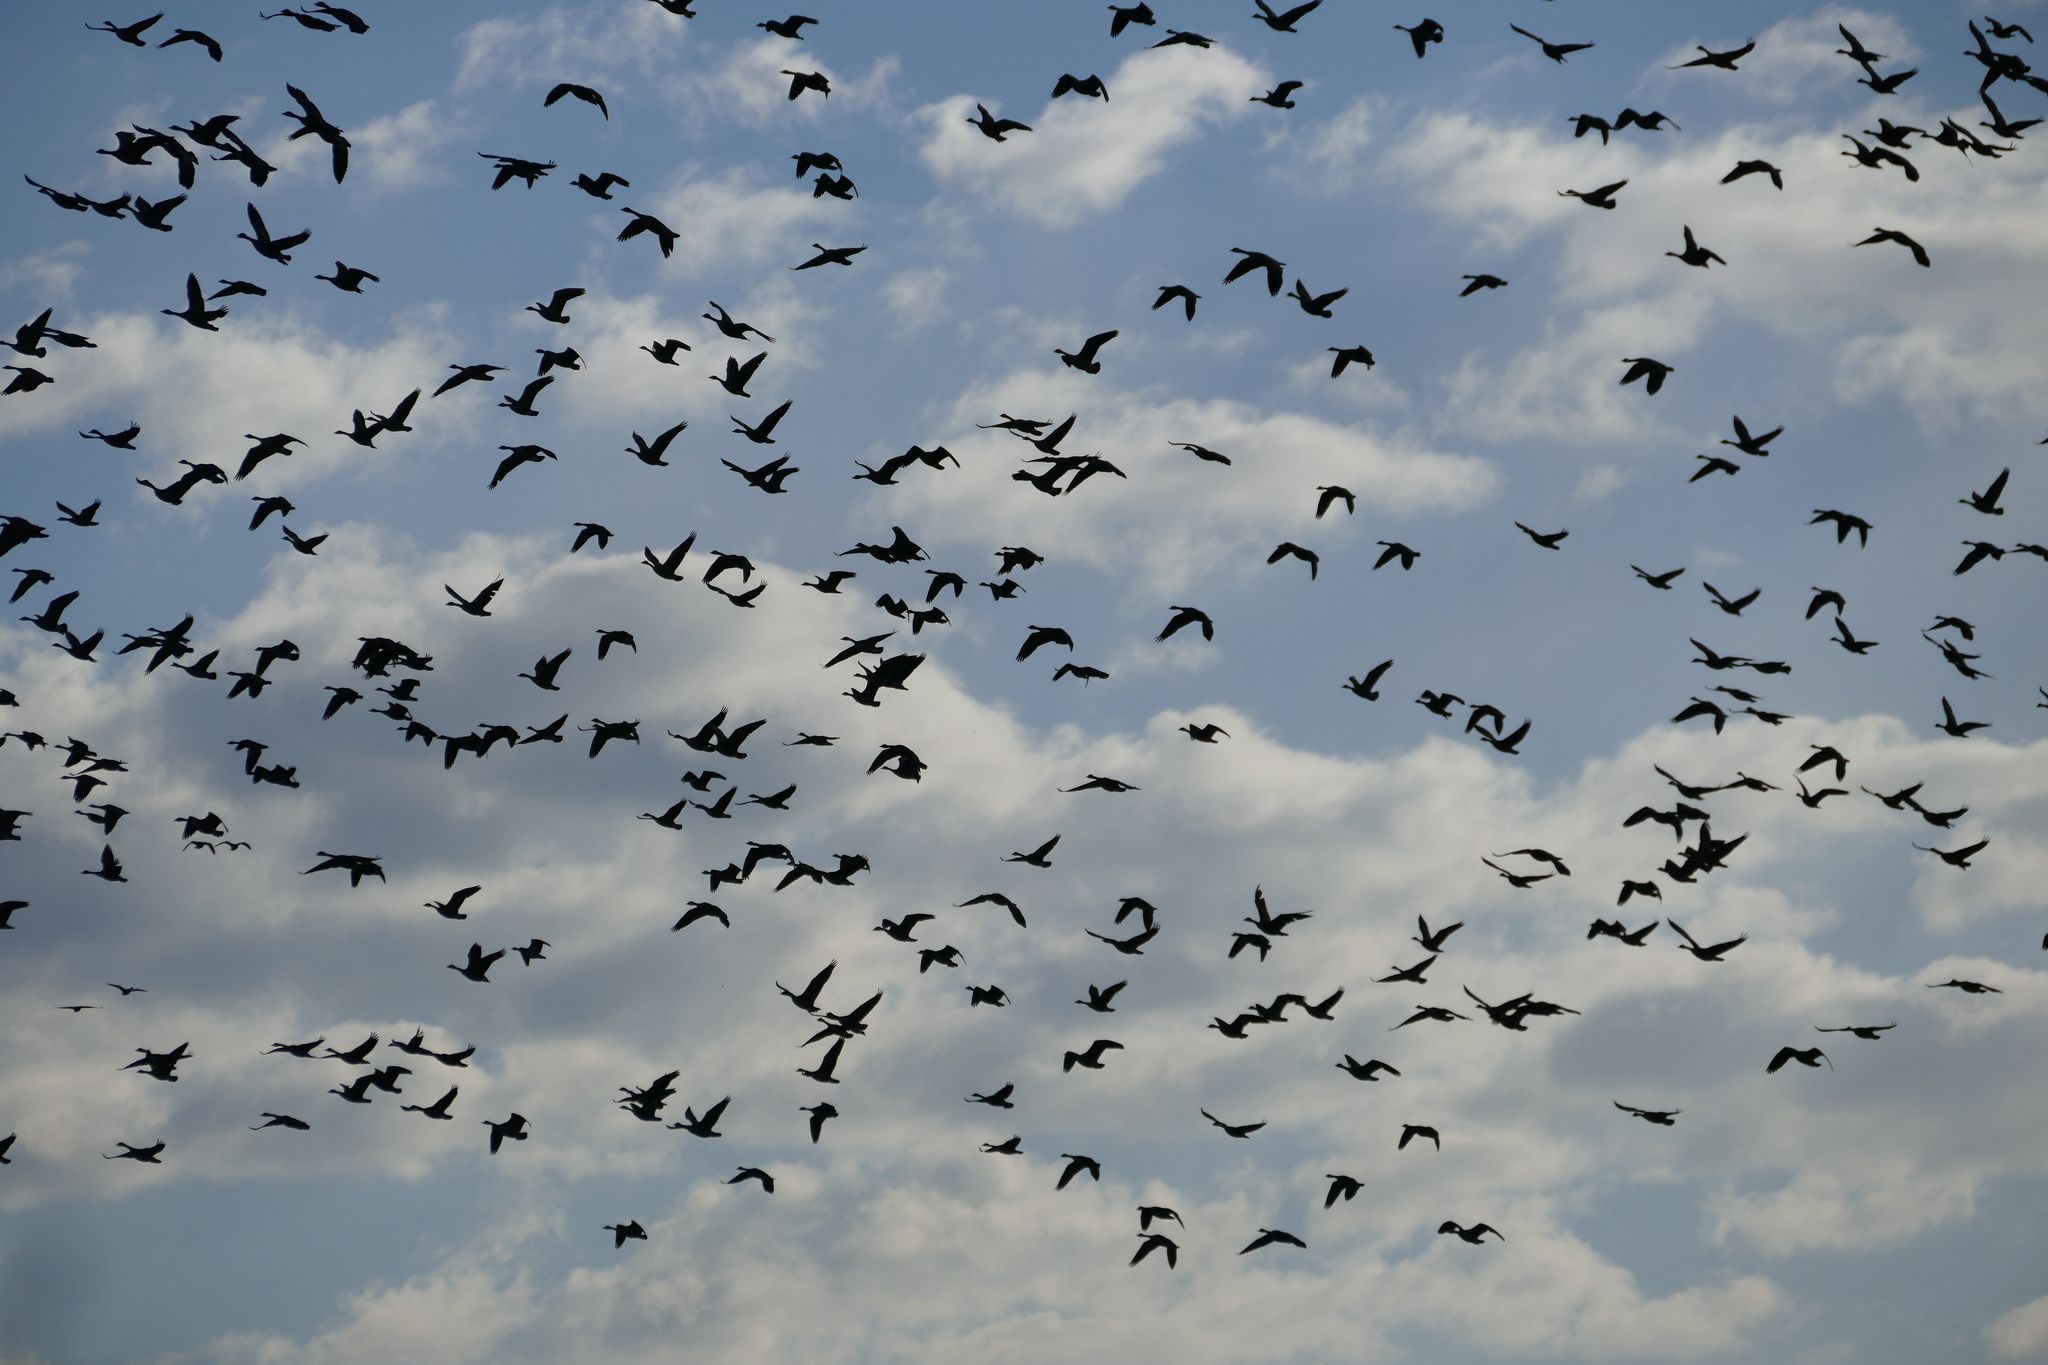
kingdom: Animalia
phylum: Chordata
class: Aves
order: Anseriformes
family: Anatidae
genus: Branta
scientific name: Branta canadensis
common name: Canada goose
